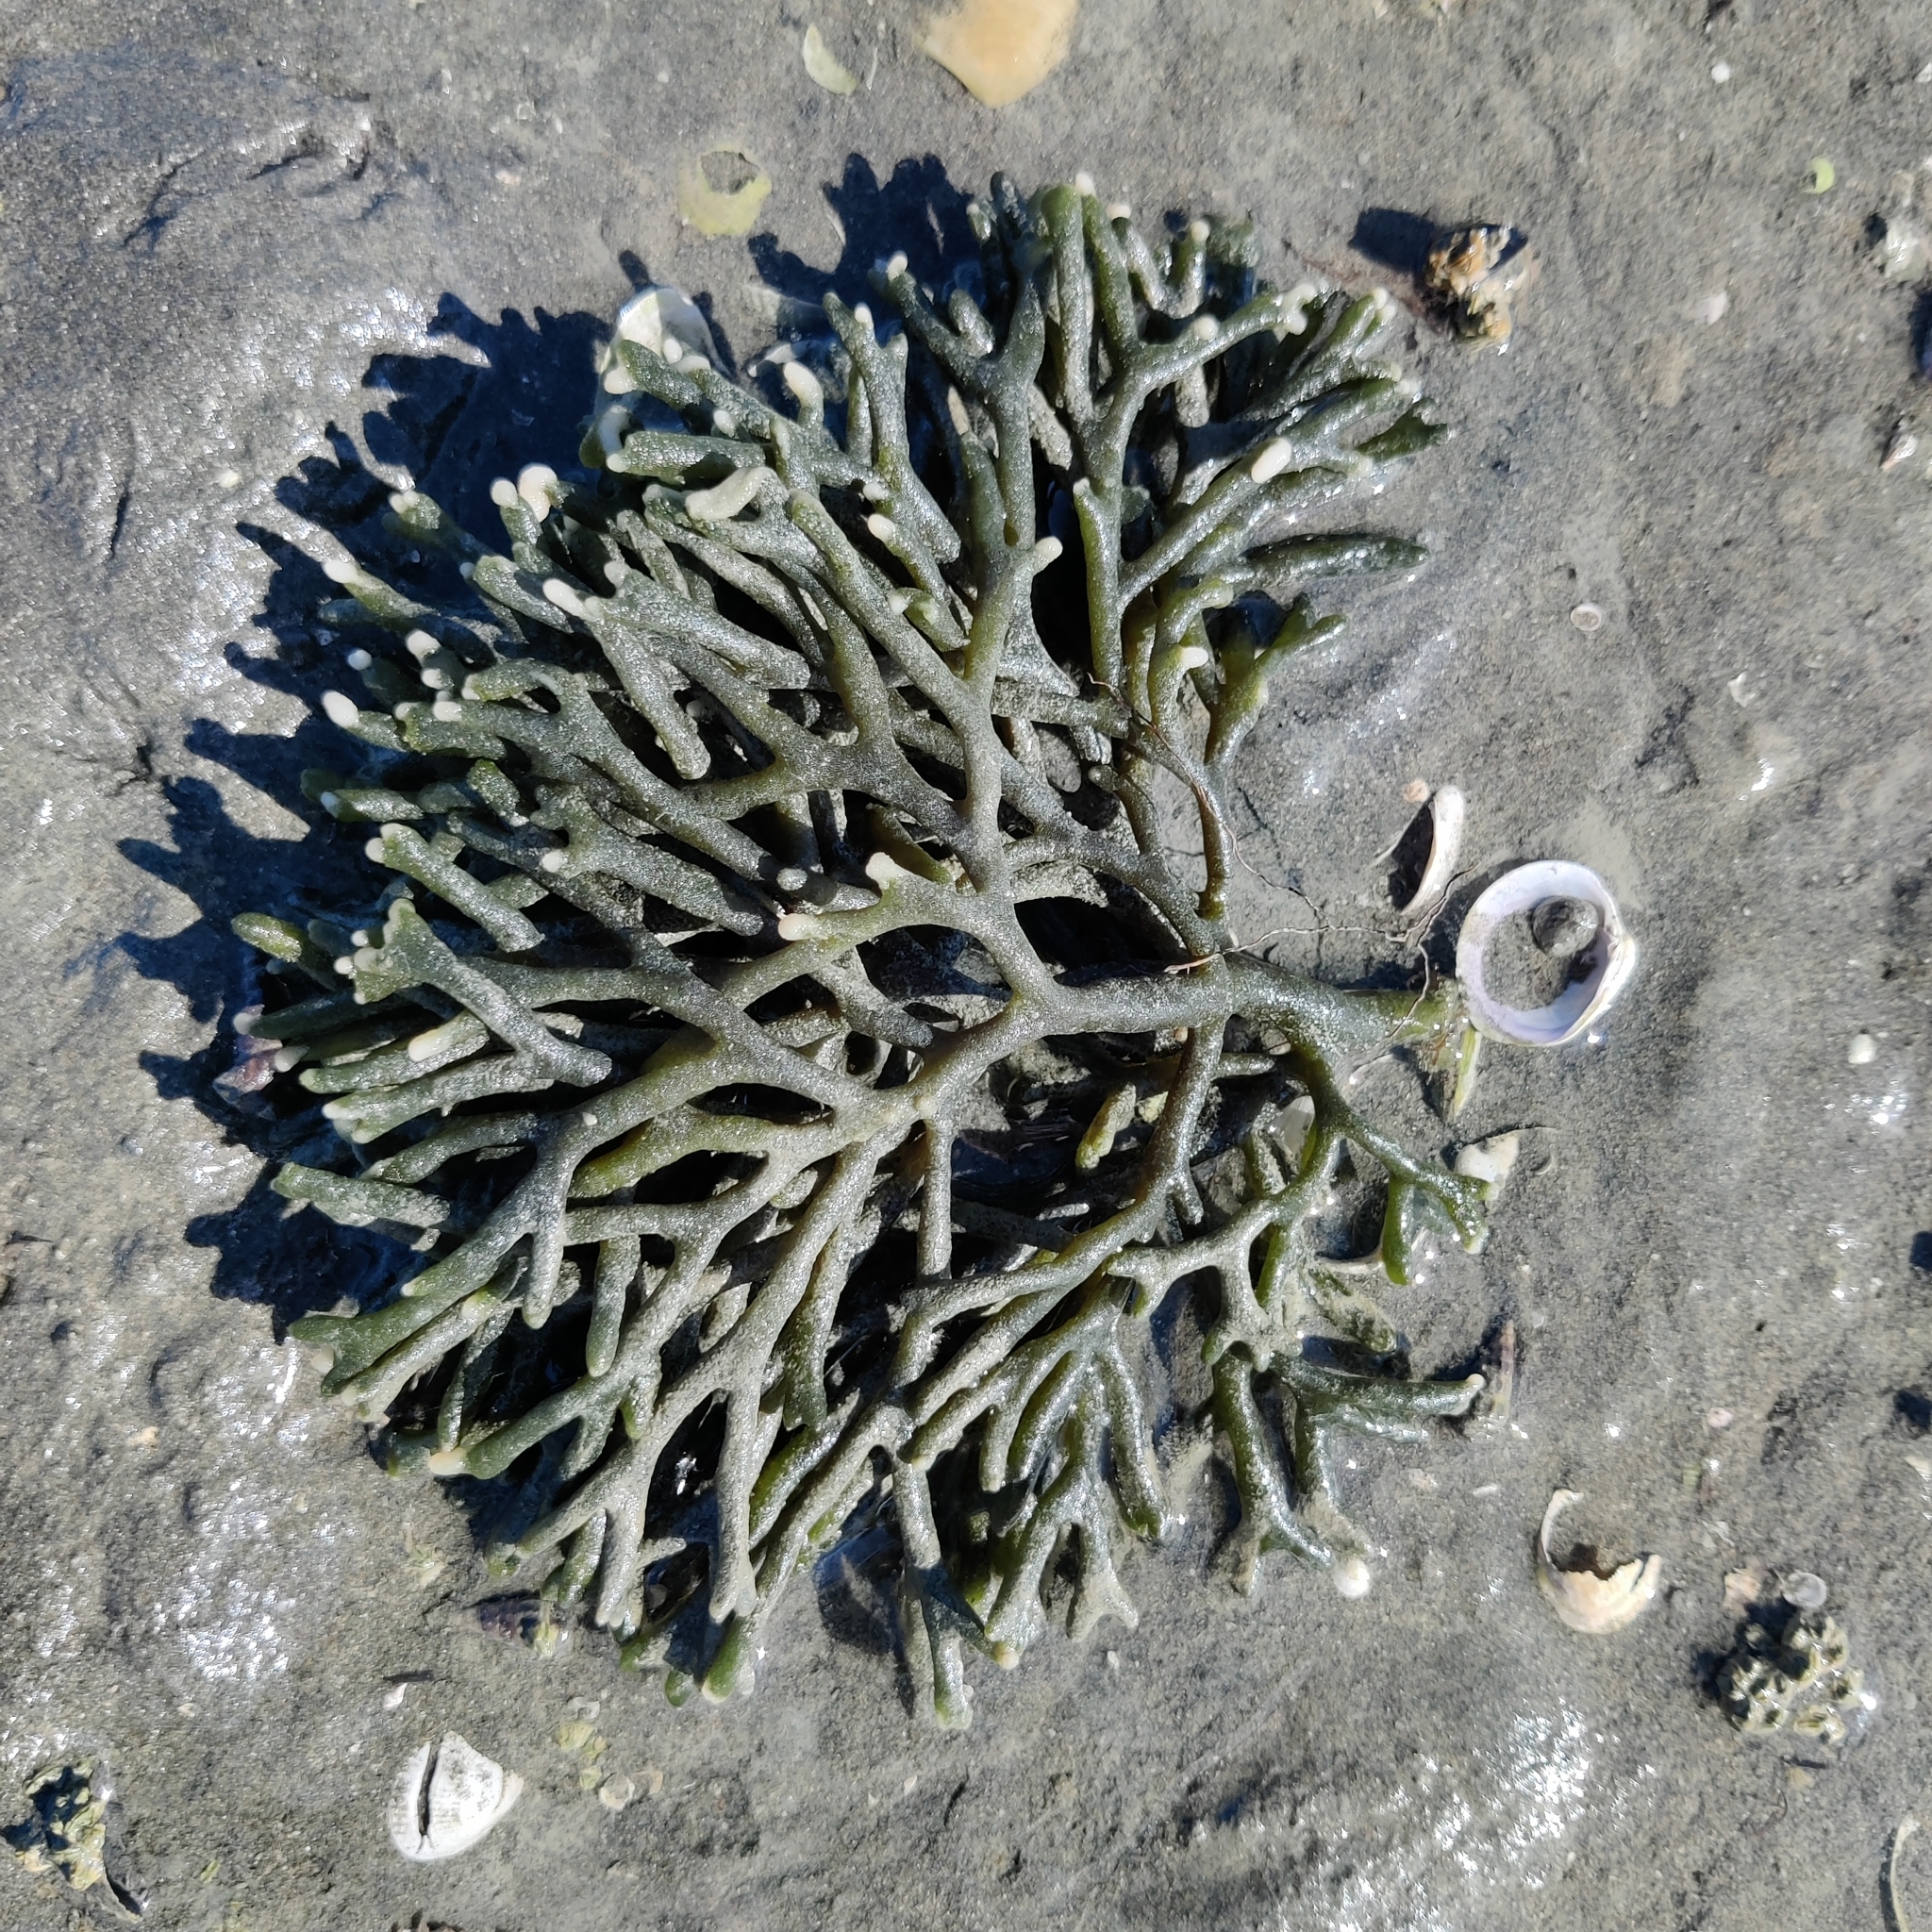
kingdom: Plantae
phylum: Chlorophyta
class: Ulvophyceae
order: Bryopsidales
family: Codiaceae
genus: Codium
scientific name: Codium fragile
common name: Dead man's fingers
